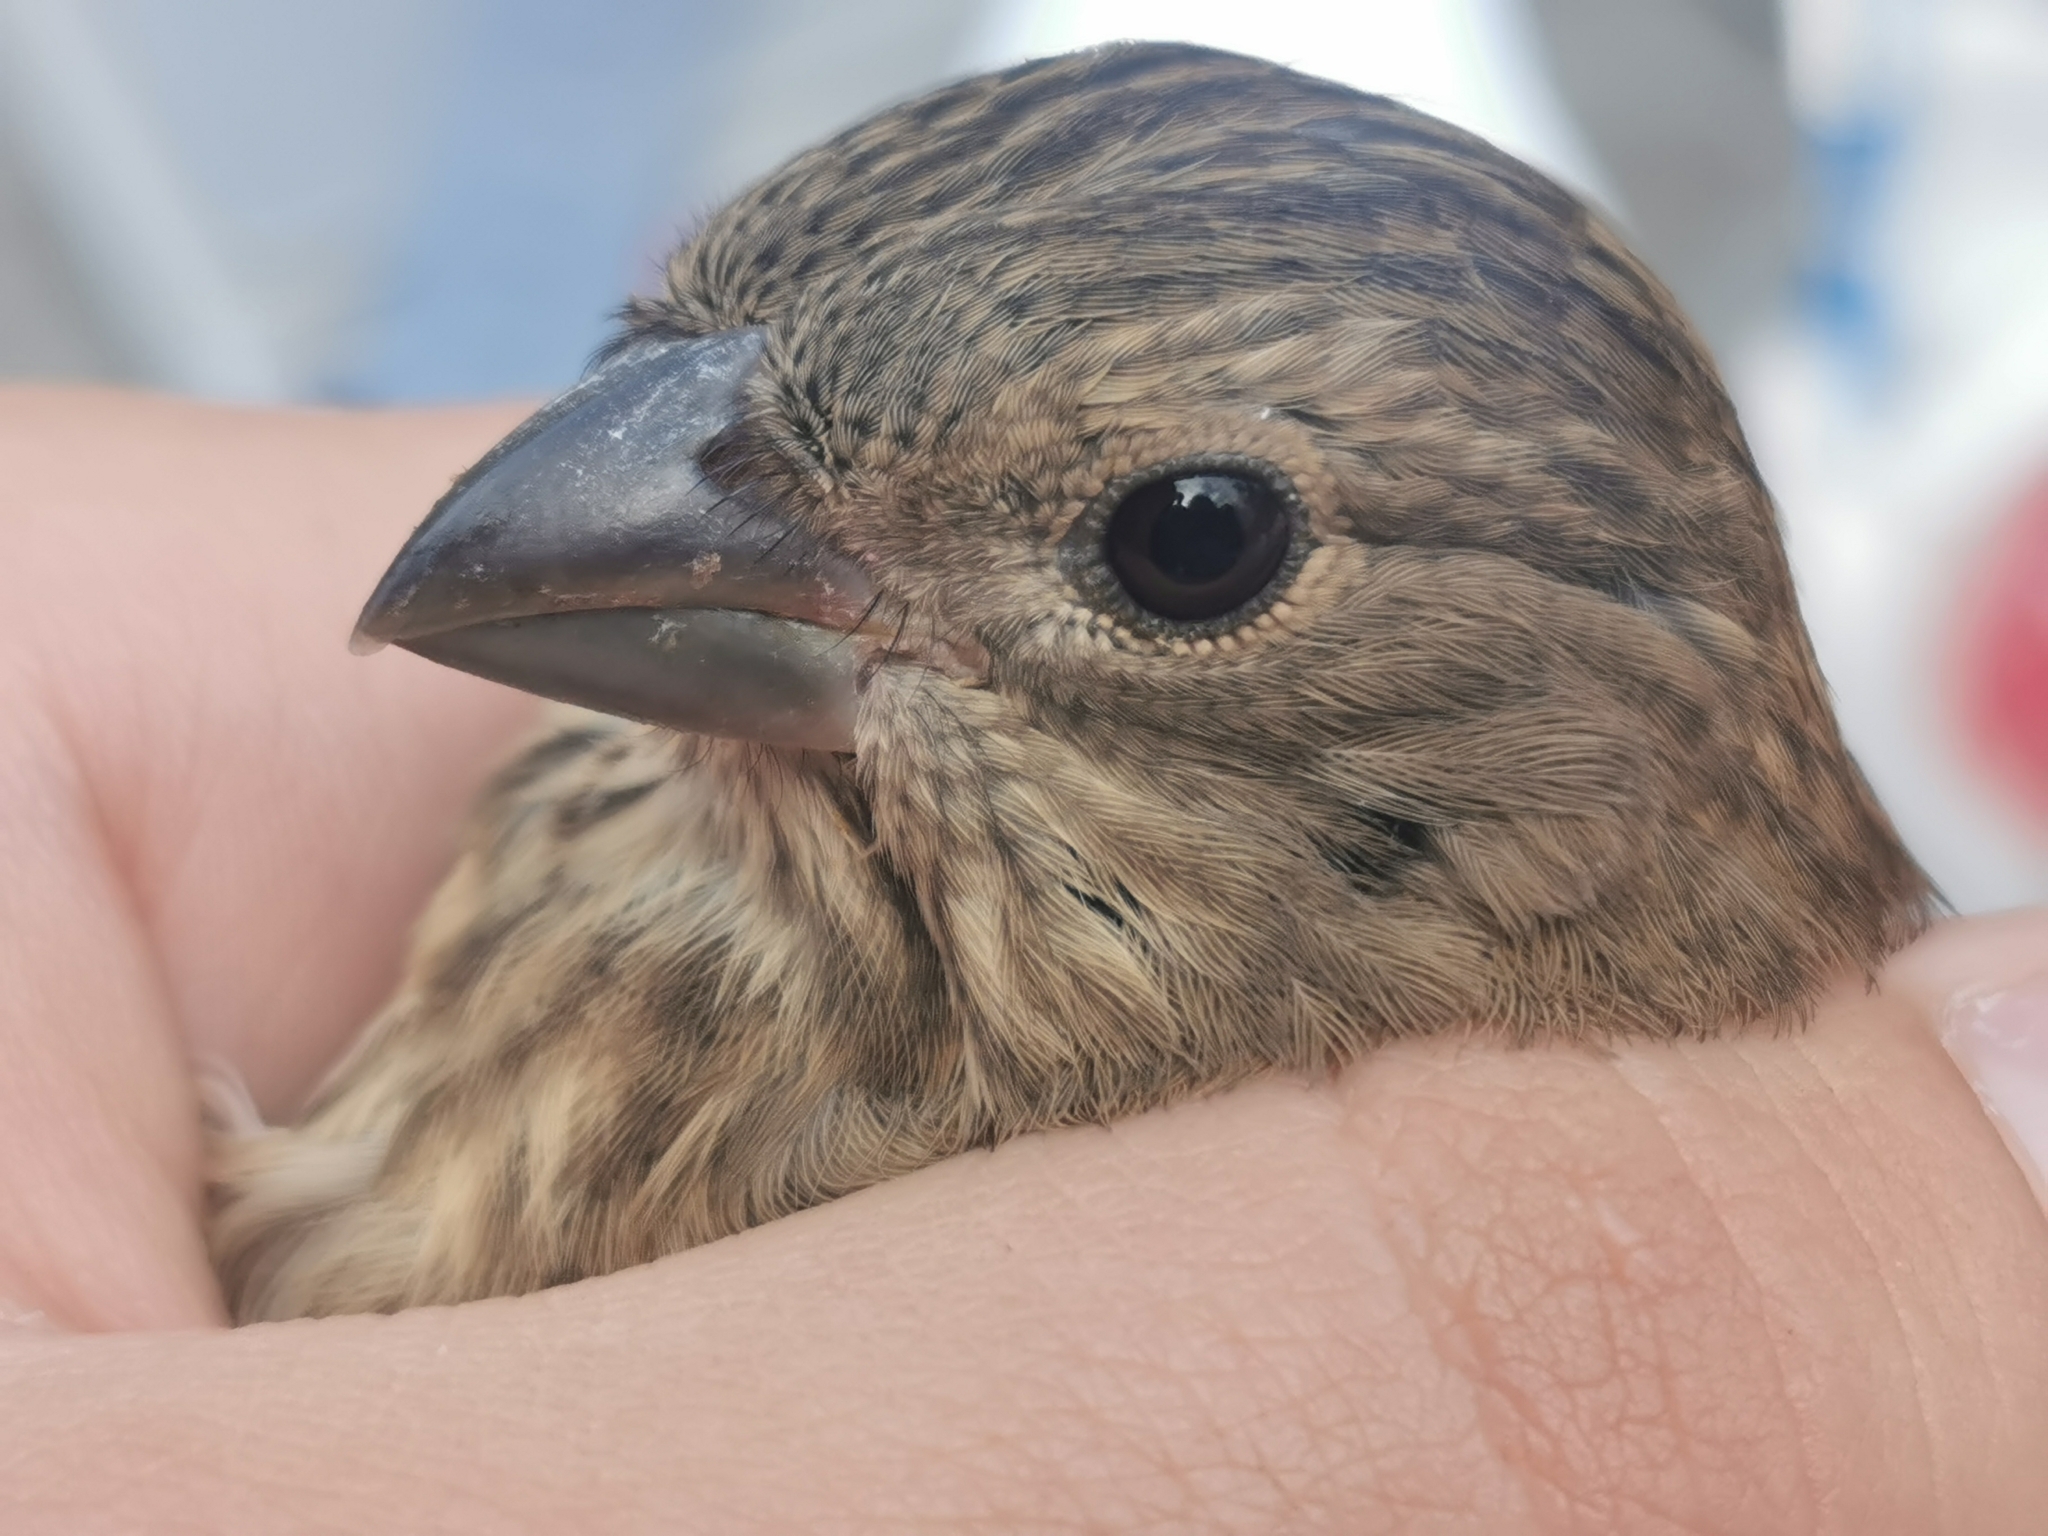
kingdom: Animalia
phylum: Chordata
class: Aves
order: Passeriformes
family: Fringillidae
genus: Carpodacus
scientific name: Carpodacus erythrinus
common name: Common rosefinch
